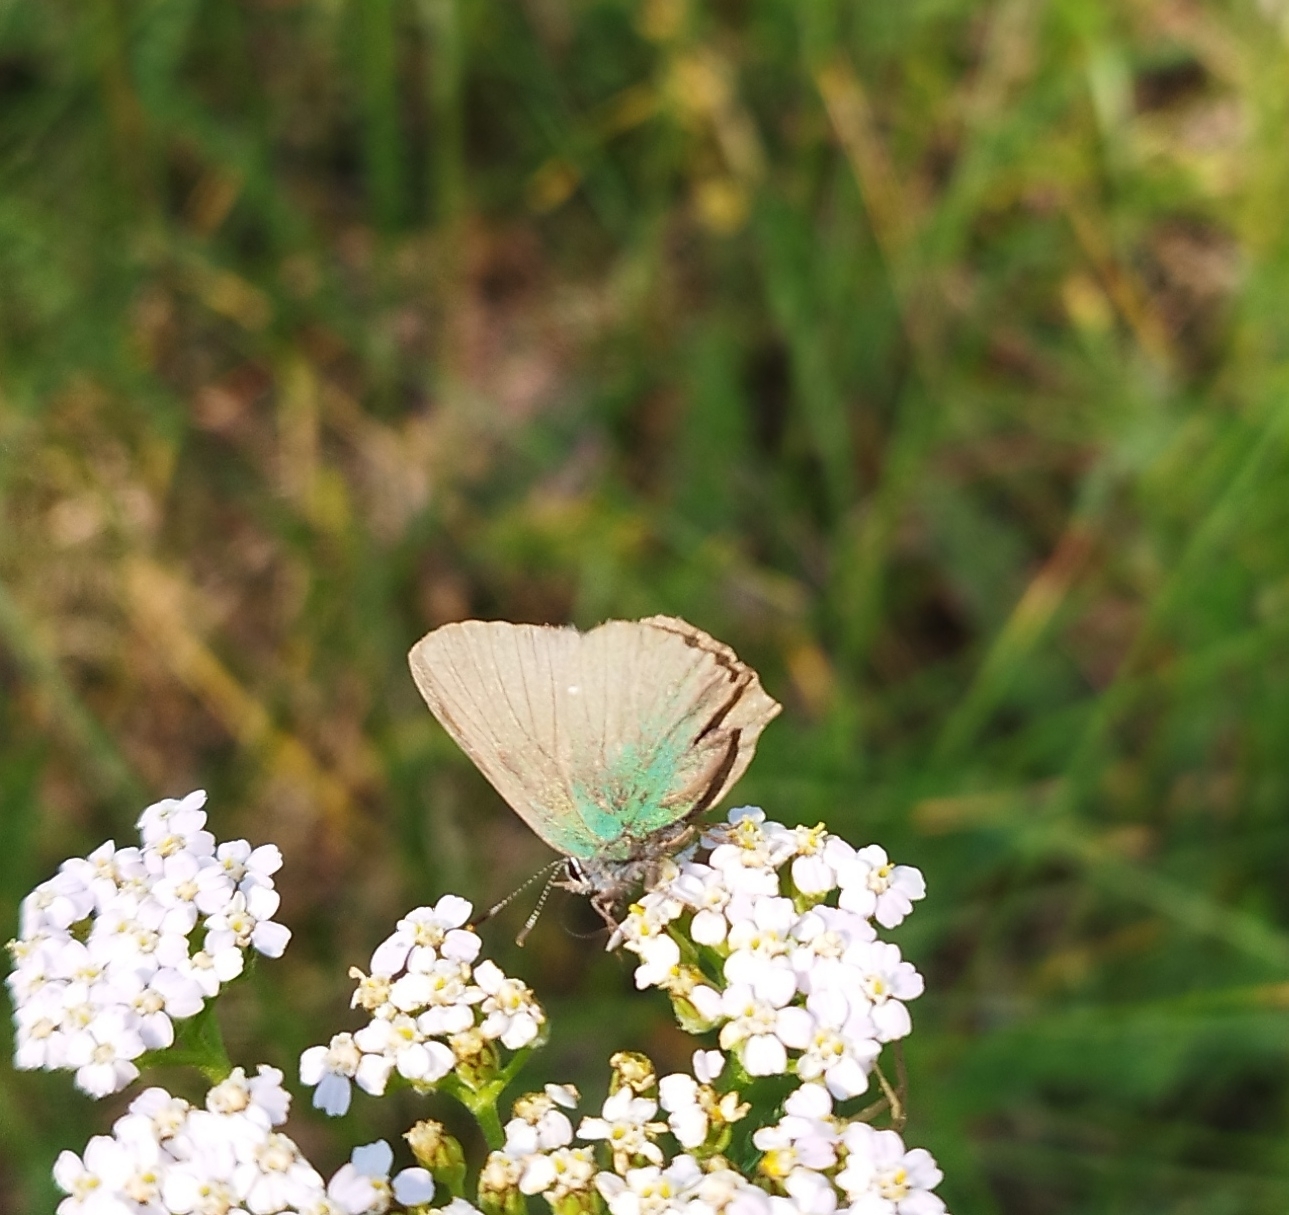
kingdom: Animalia
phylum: Arthropoda
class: Insecta
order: Lepidoptera
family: Lycaenidae
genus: Callophrys
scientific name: Callophrys rubi
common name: Green hairstreak
